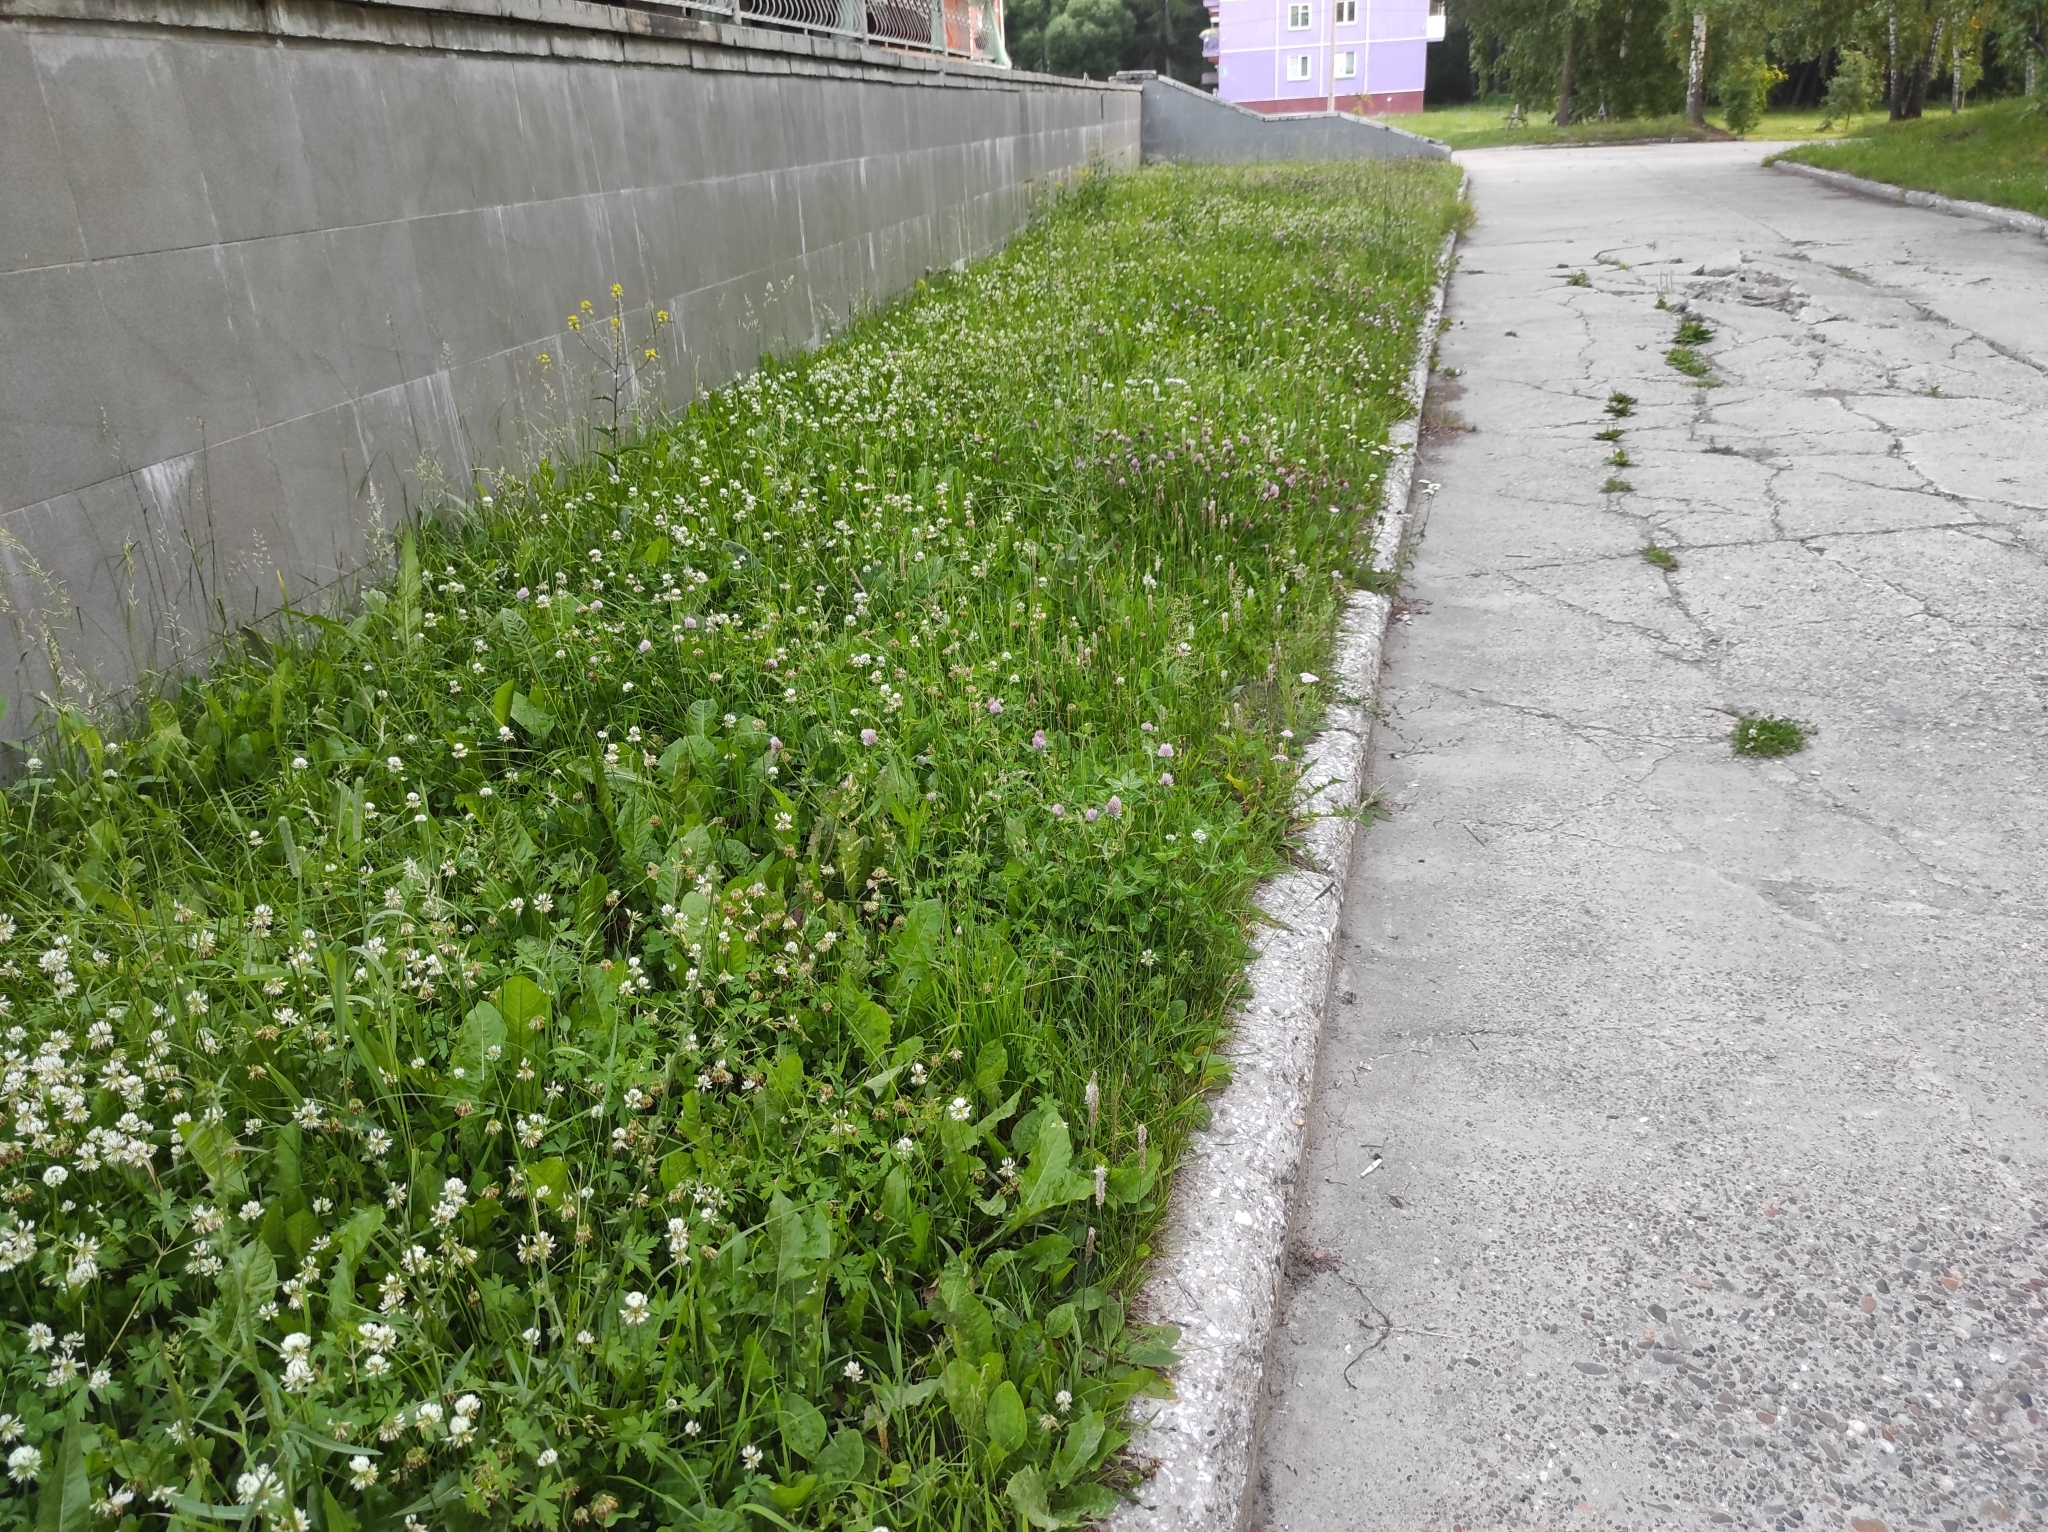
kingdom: Plantae
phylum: Tracheophyta
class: Magnoliopsida
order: Fabales
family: Fabaceae
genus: Trifolium
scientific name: Trifolium pratense
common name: Red clover
